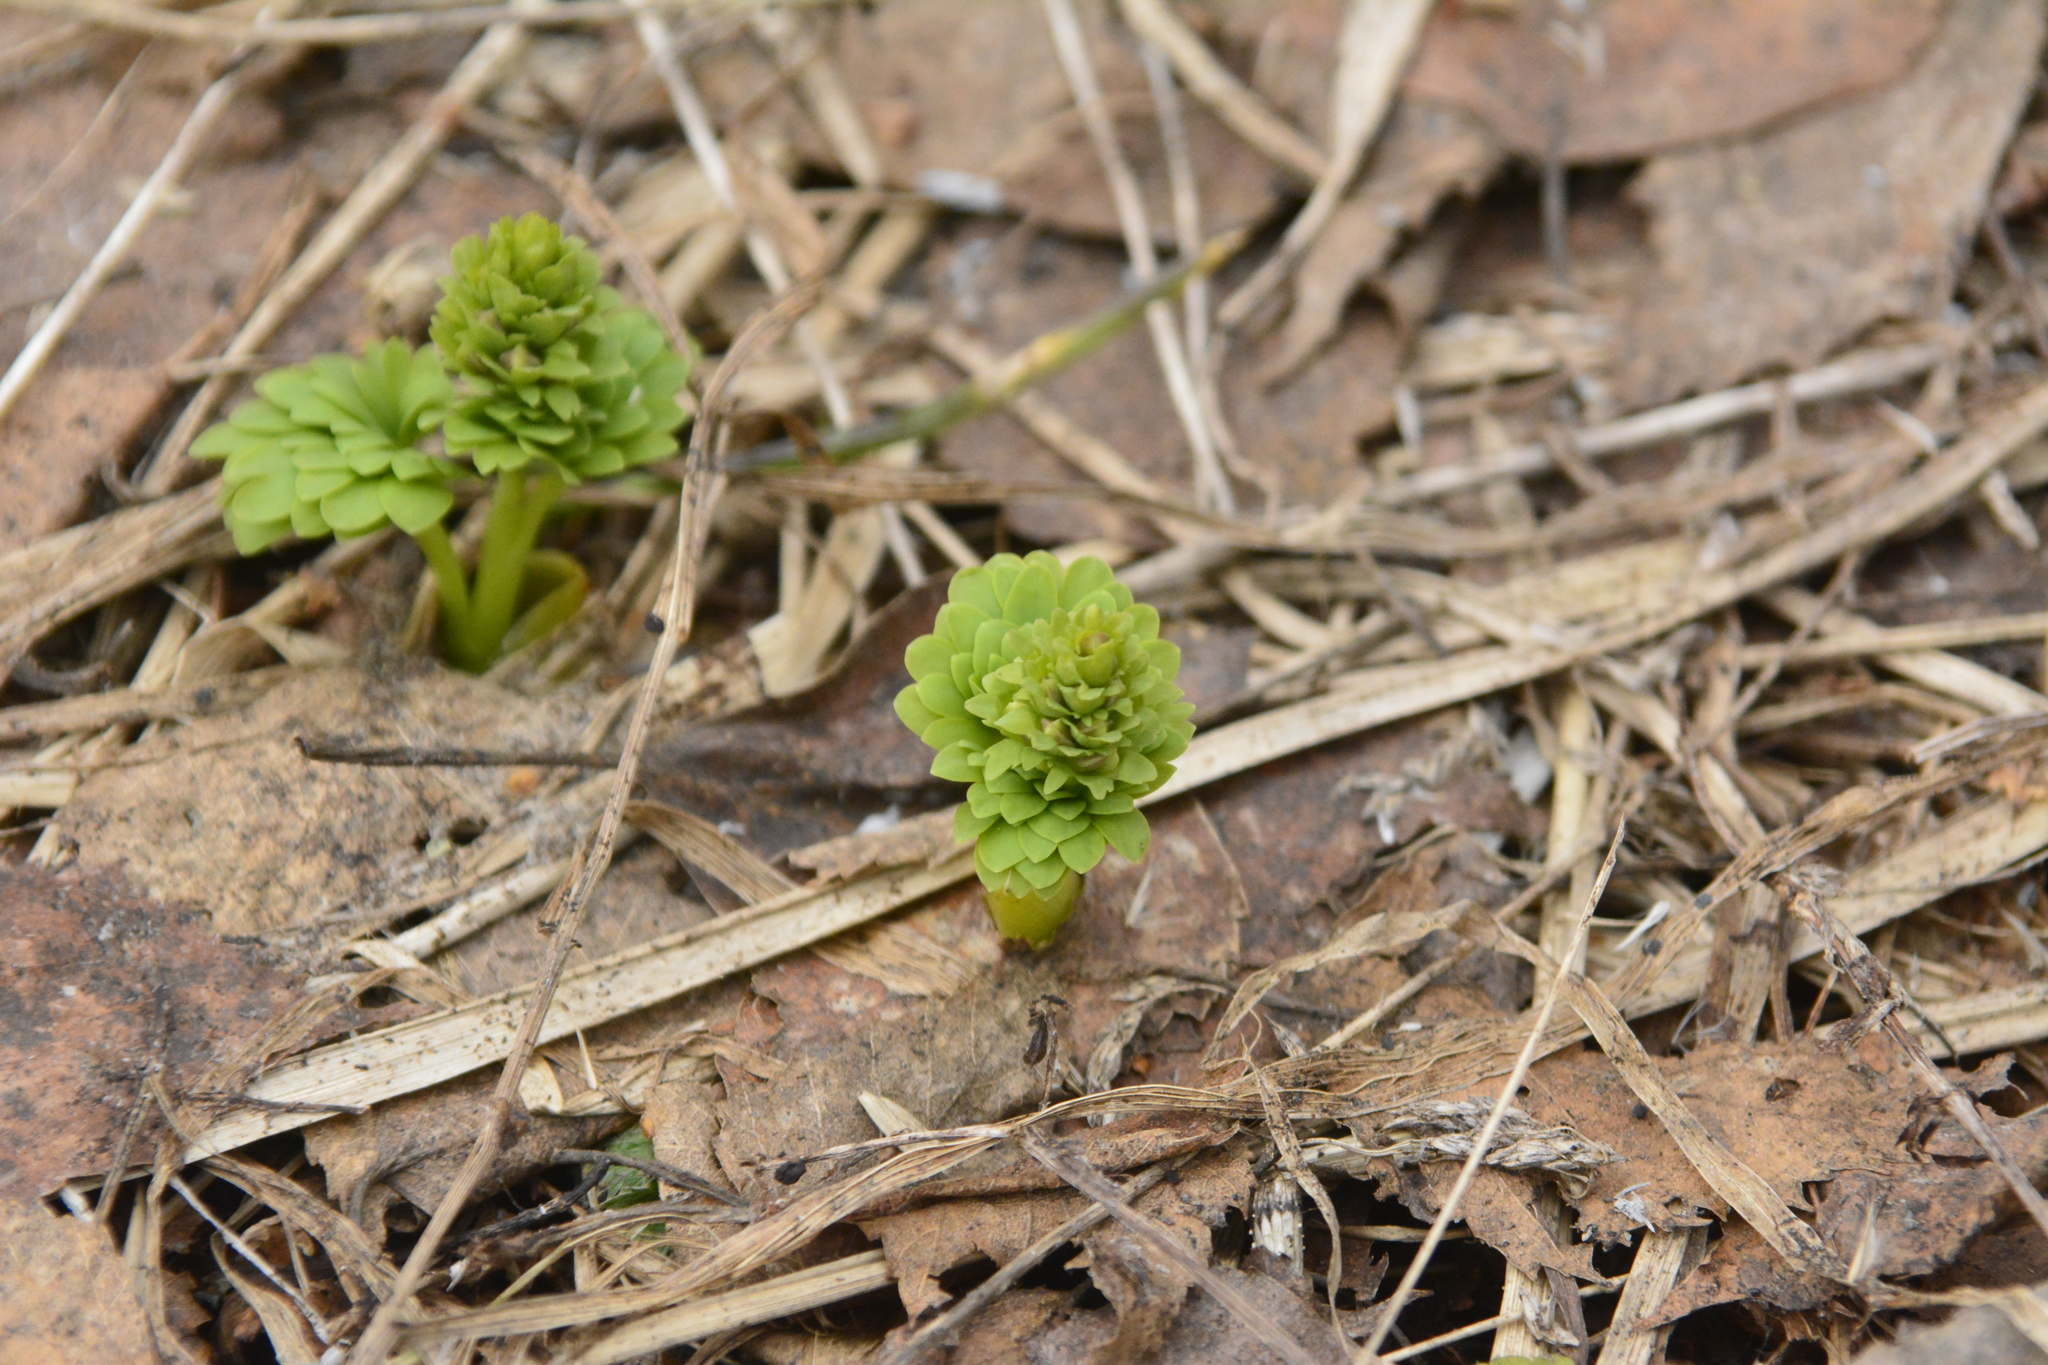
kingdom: Plantae
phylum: Tracheophyta
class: Magnoliopsida
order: Ranunculales
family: Papaveraceae
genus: Corydalis
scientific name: Corydalis solida
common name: Bird-in-a-bush
